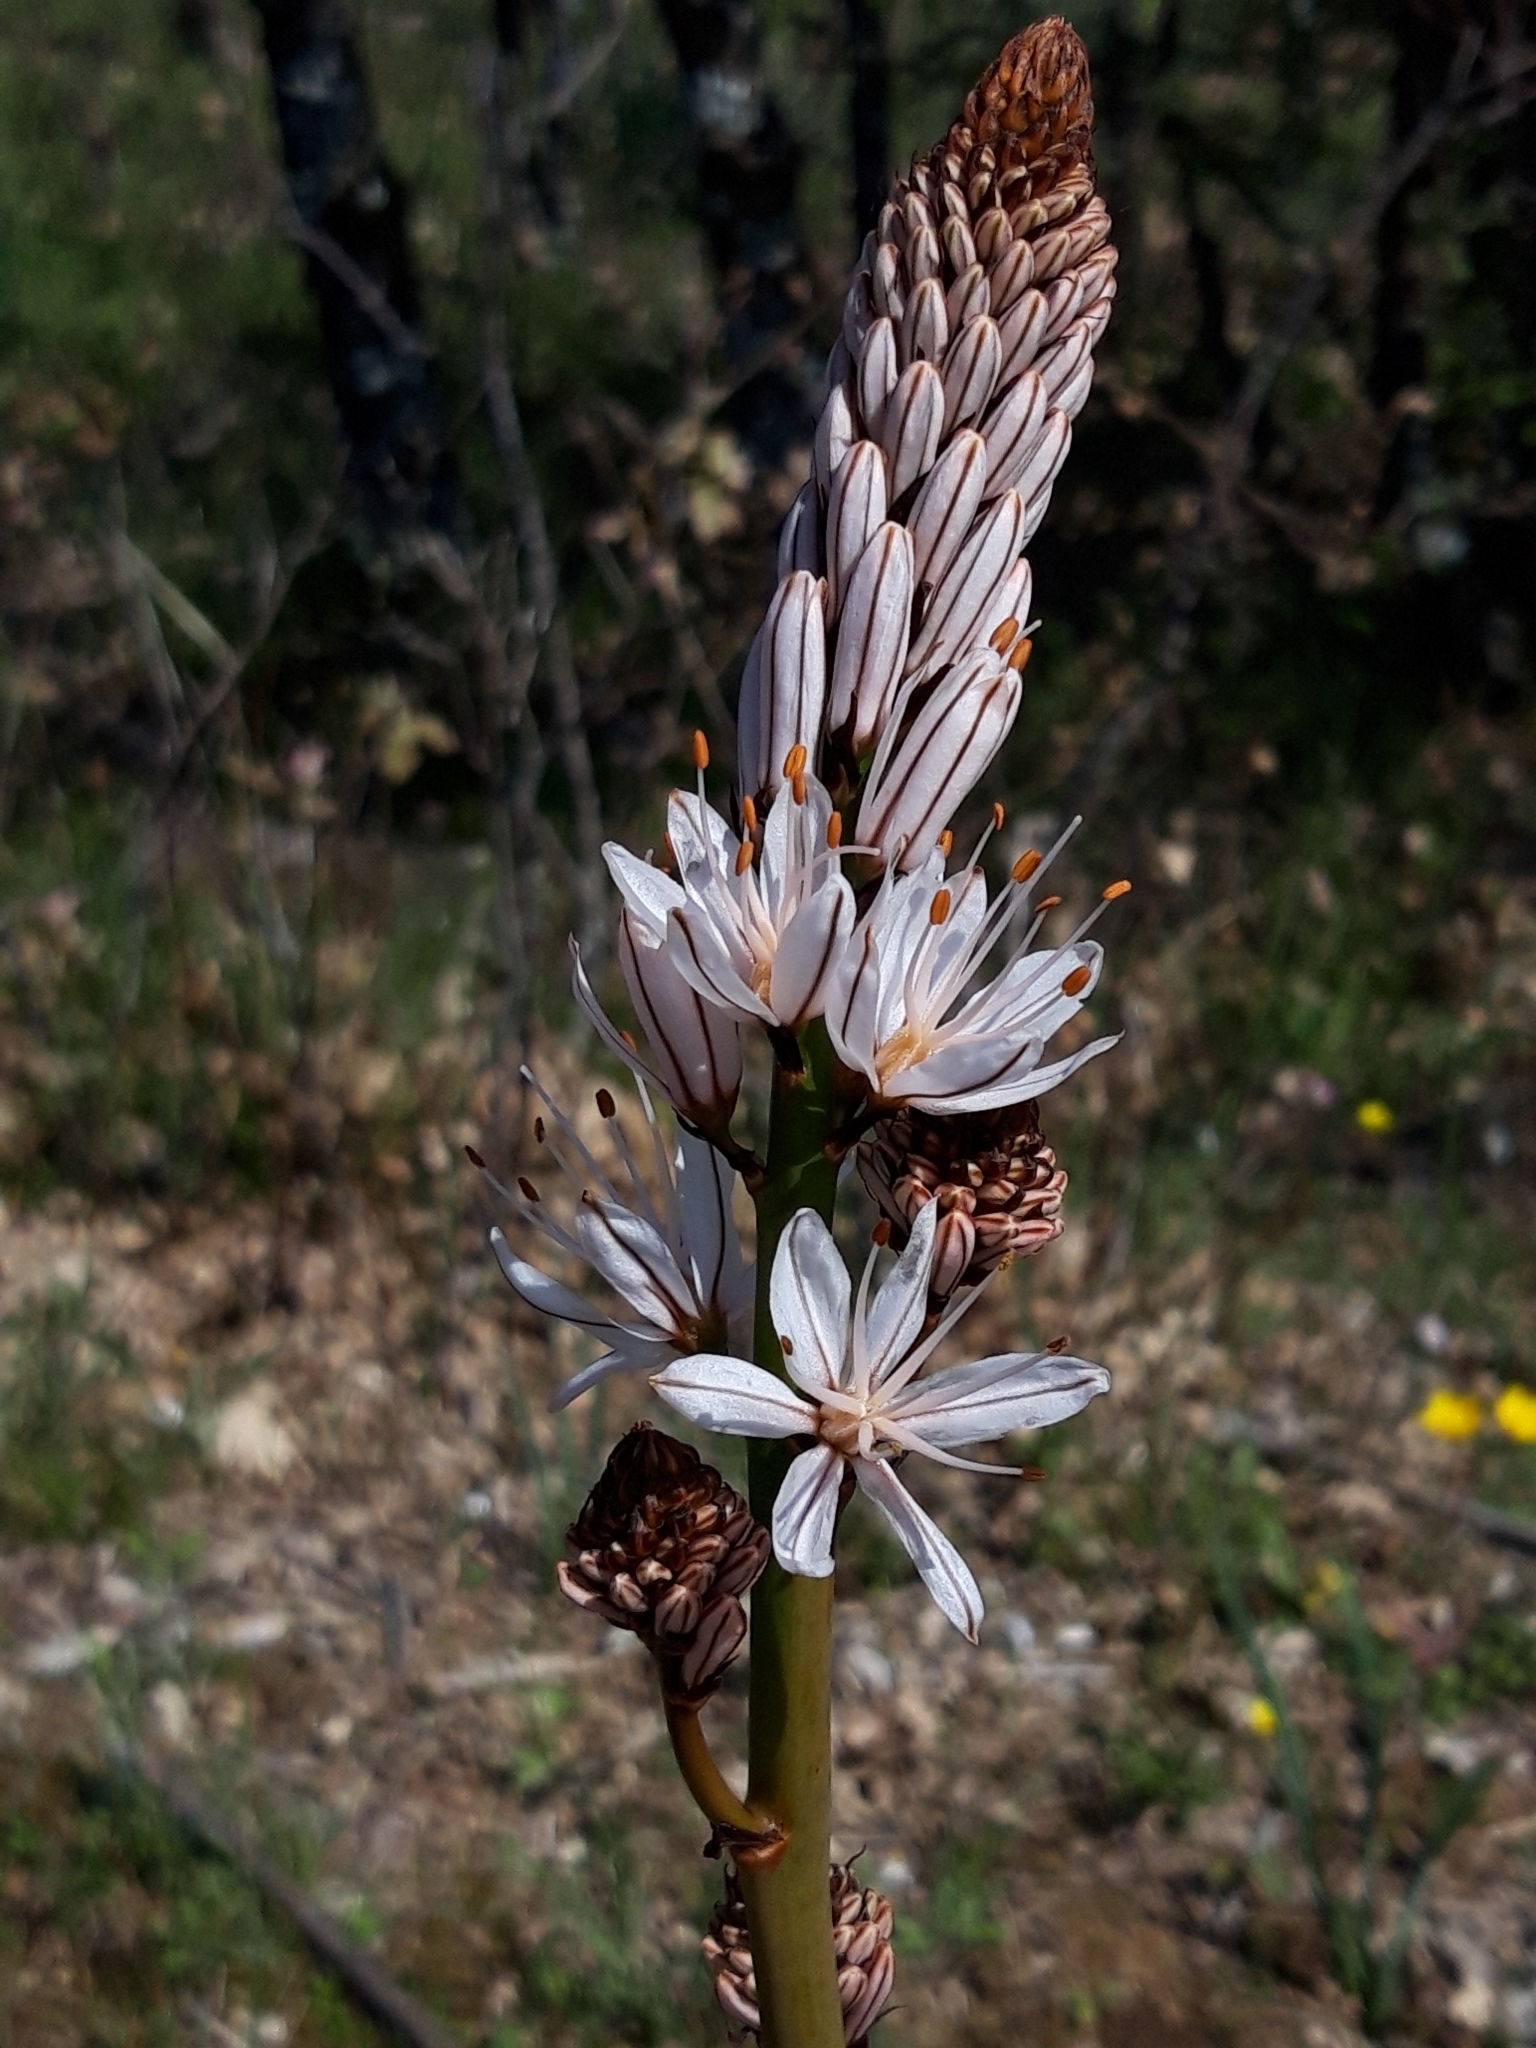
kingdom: Plantae
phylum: Tracheophyta
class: Liliopsida
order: Asparagales
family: Asphodelaceae
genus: Asphodelus
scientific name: Asphodelus albus
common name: White asphodel
